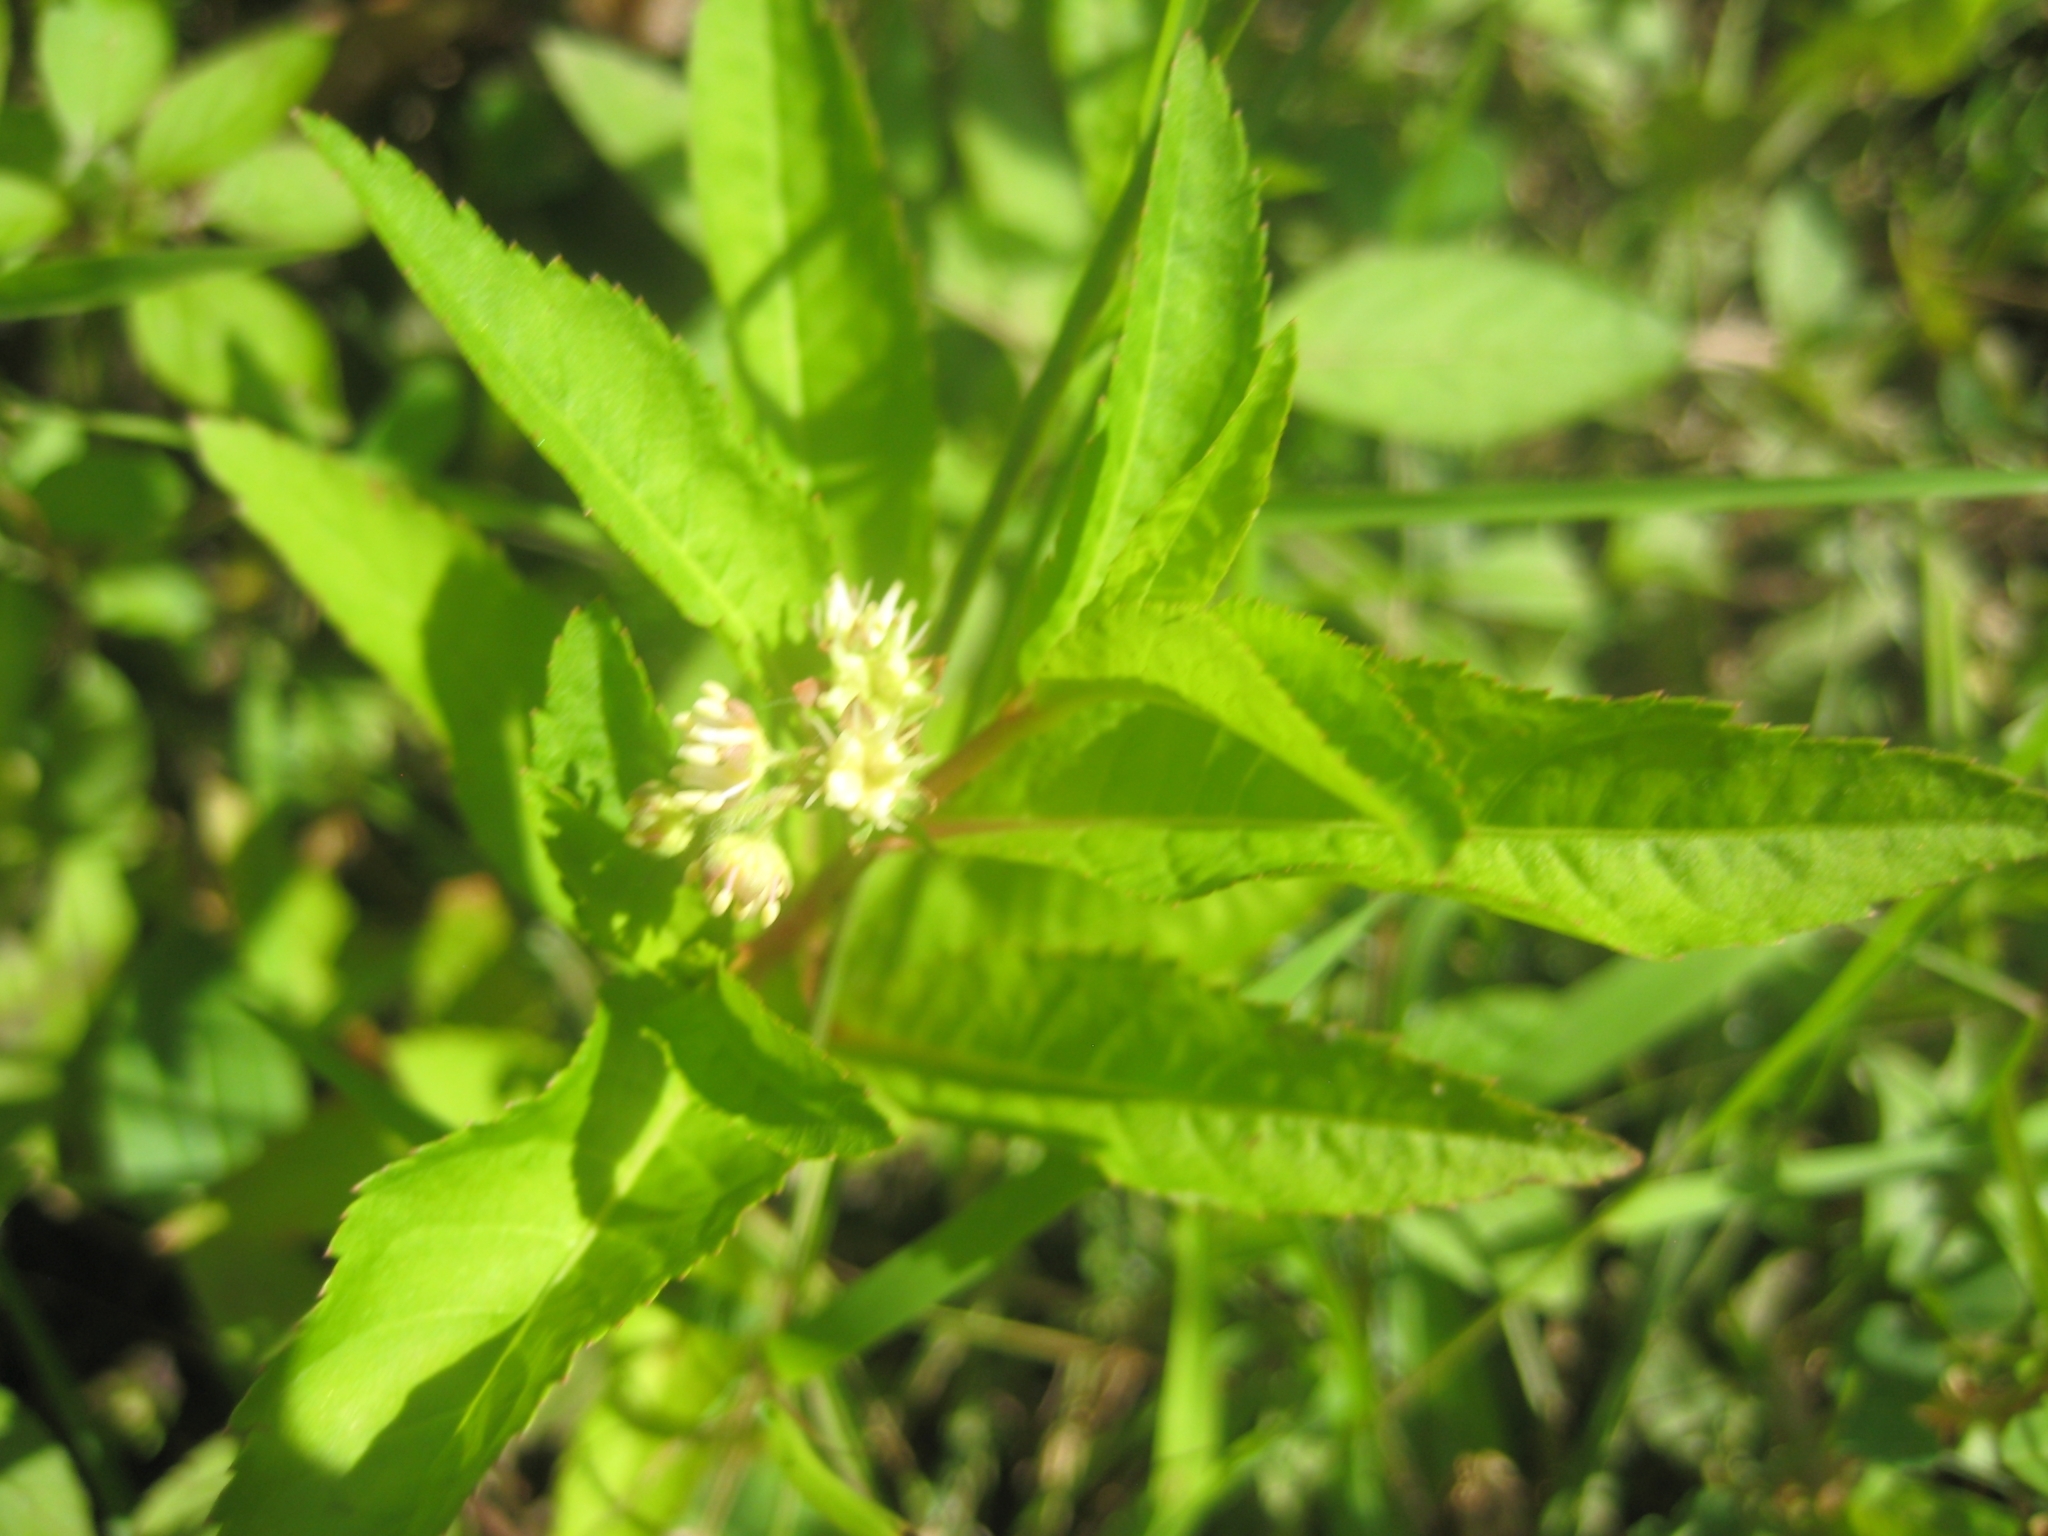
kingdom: Plantae
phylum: Tracheophyta
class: Magnoliopsida
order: Saxifragales
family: Penthoraceae
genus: Penthorum
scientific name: Penthorum sedoides
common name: Ditch stonecrop
